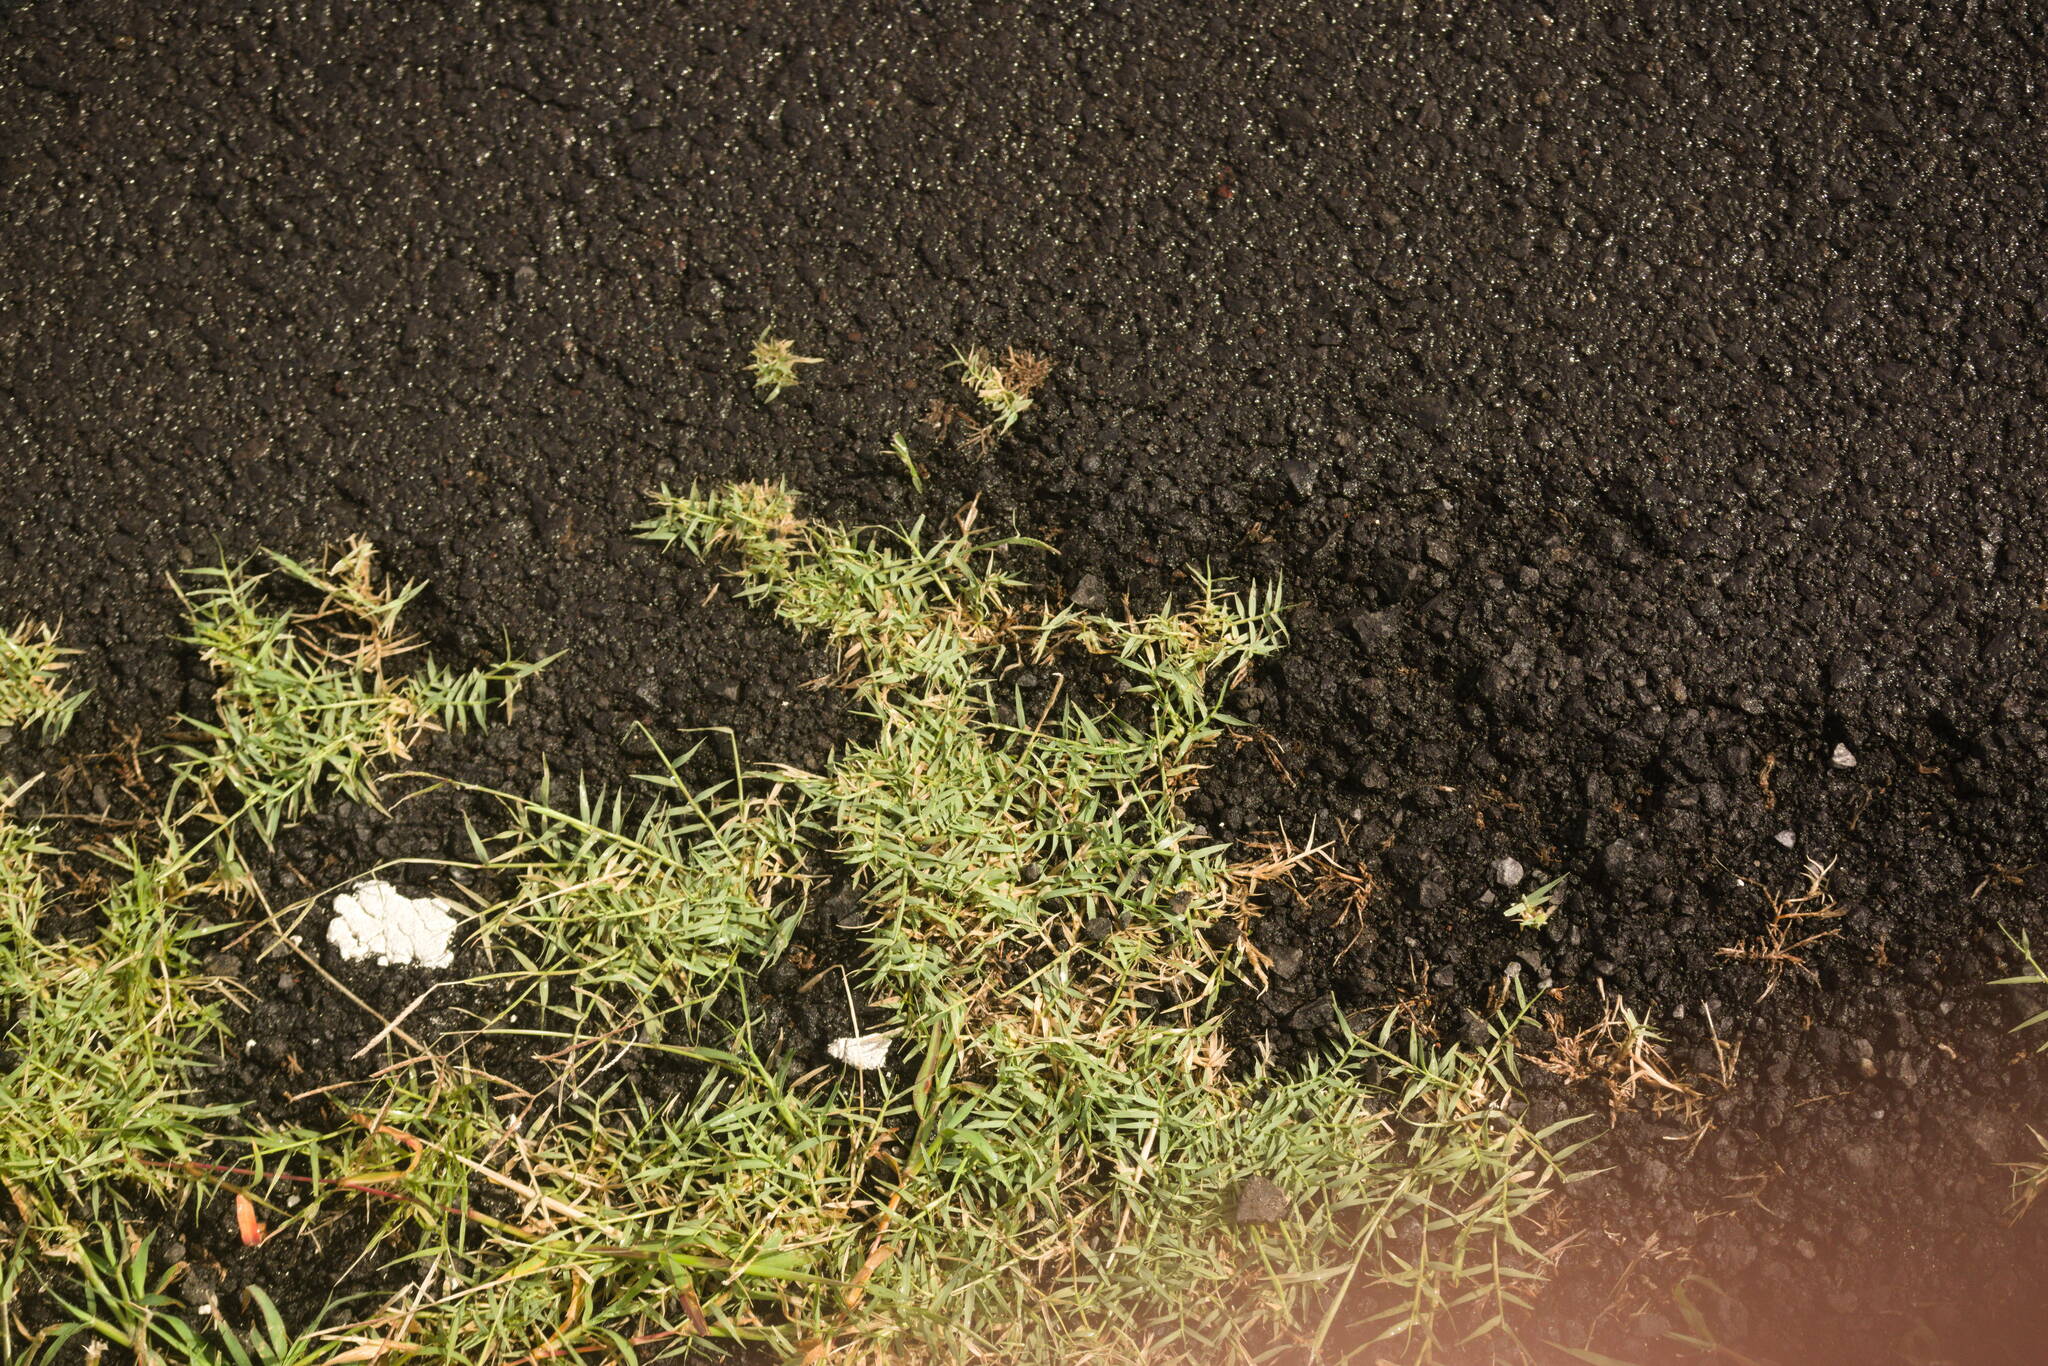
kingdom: Plantae
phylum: Tracheophyta
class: Liliopsida
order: Poales
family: Poaceae
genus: Cynodon
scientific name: Cynodon dactylon
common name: Bermuda grass
